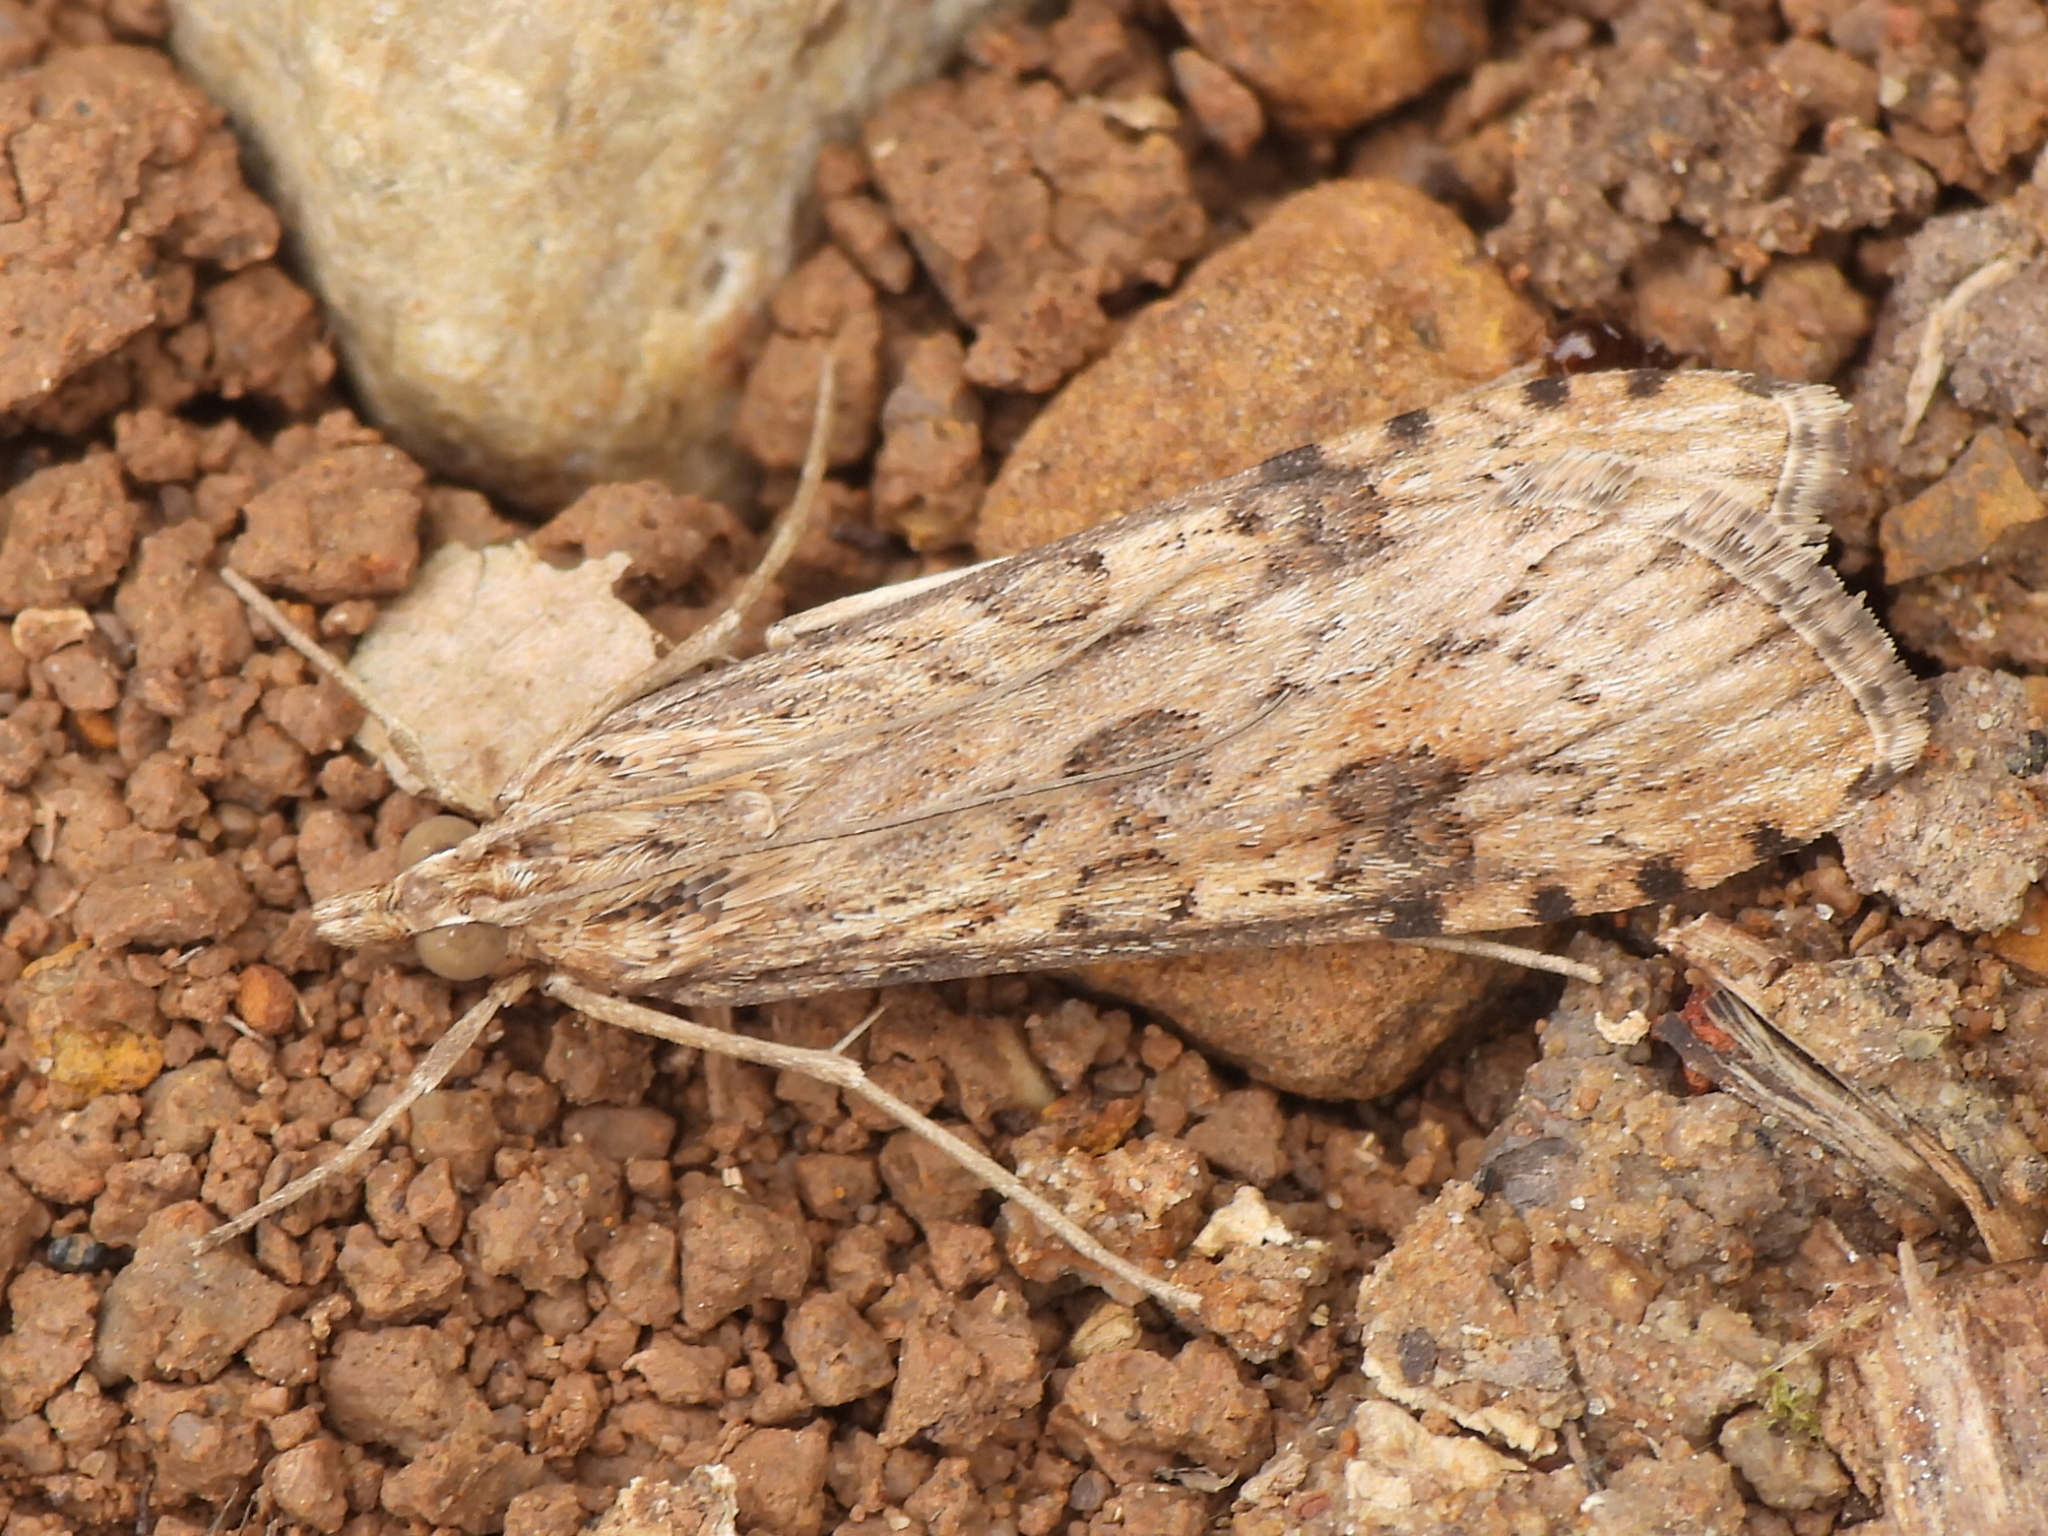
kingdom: Animalia
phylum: Arthropoda
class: Insecta
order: Lepidoptera
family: Crambidae
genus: Nomophila
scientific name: Nomophila nearctica
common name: American rush veneer
